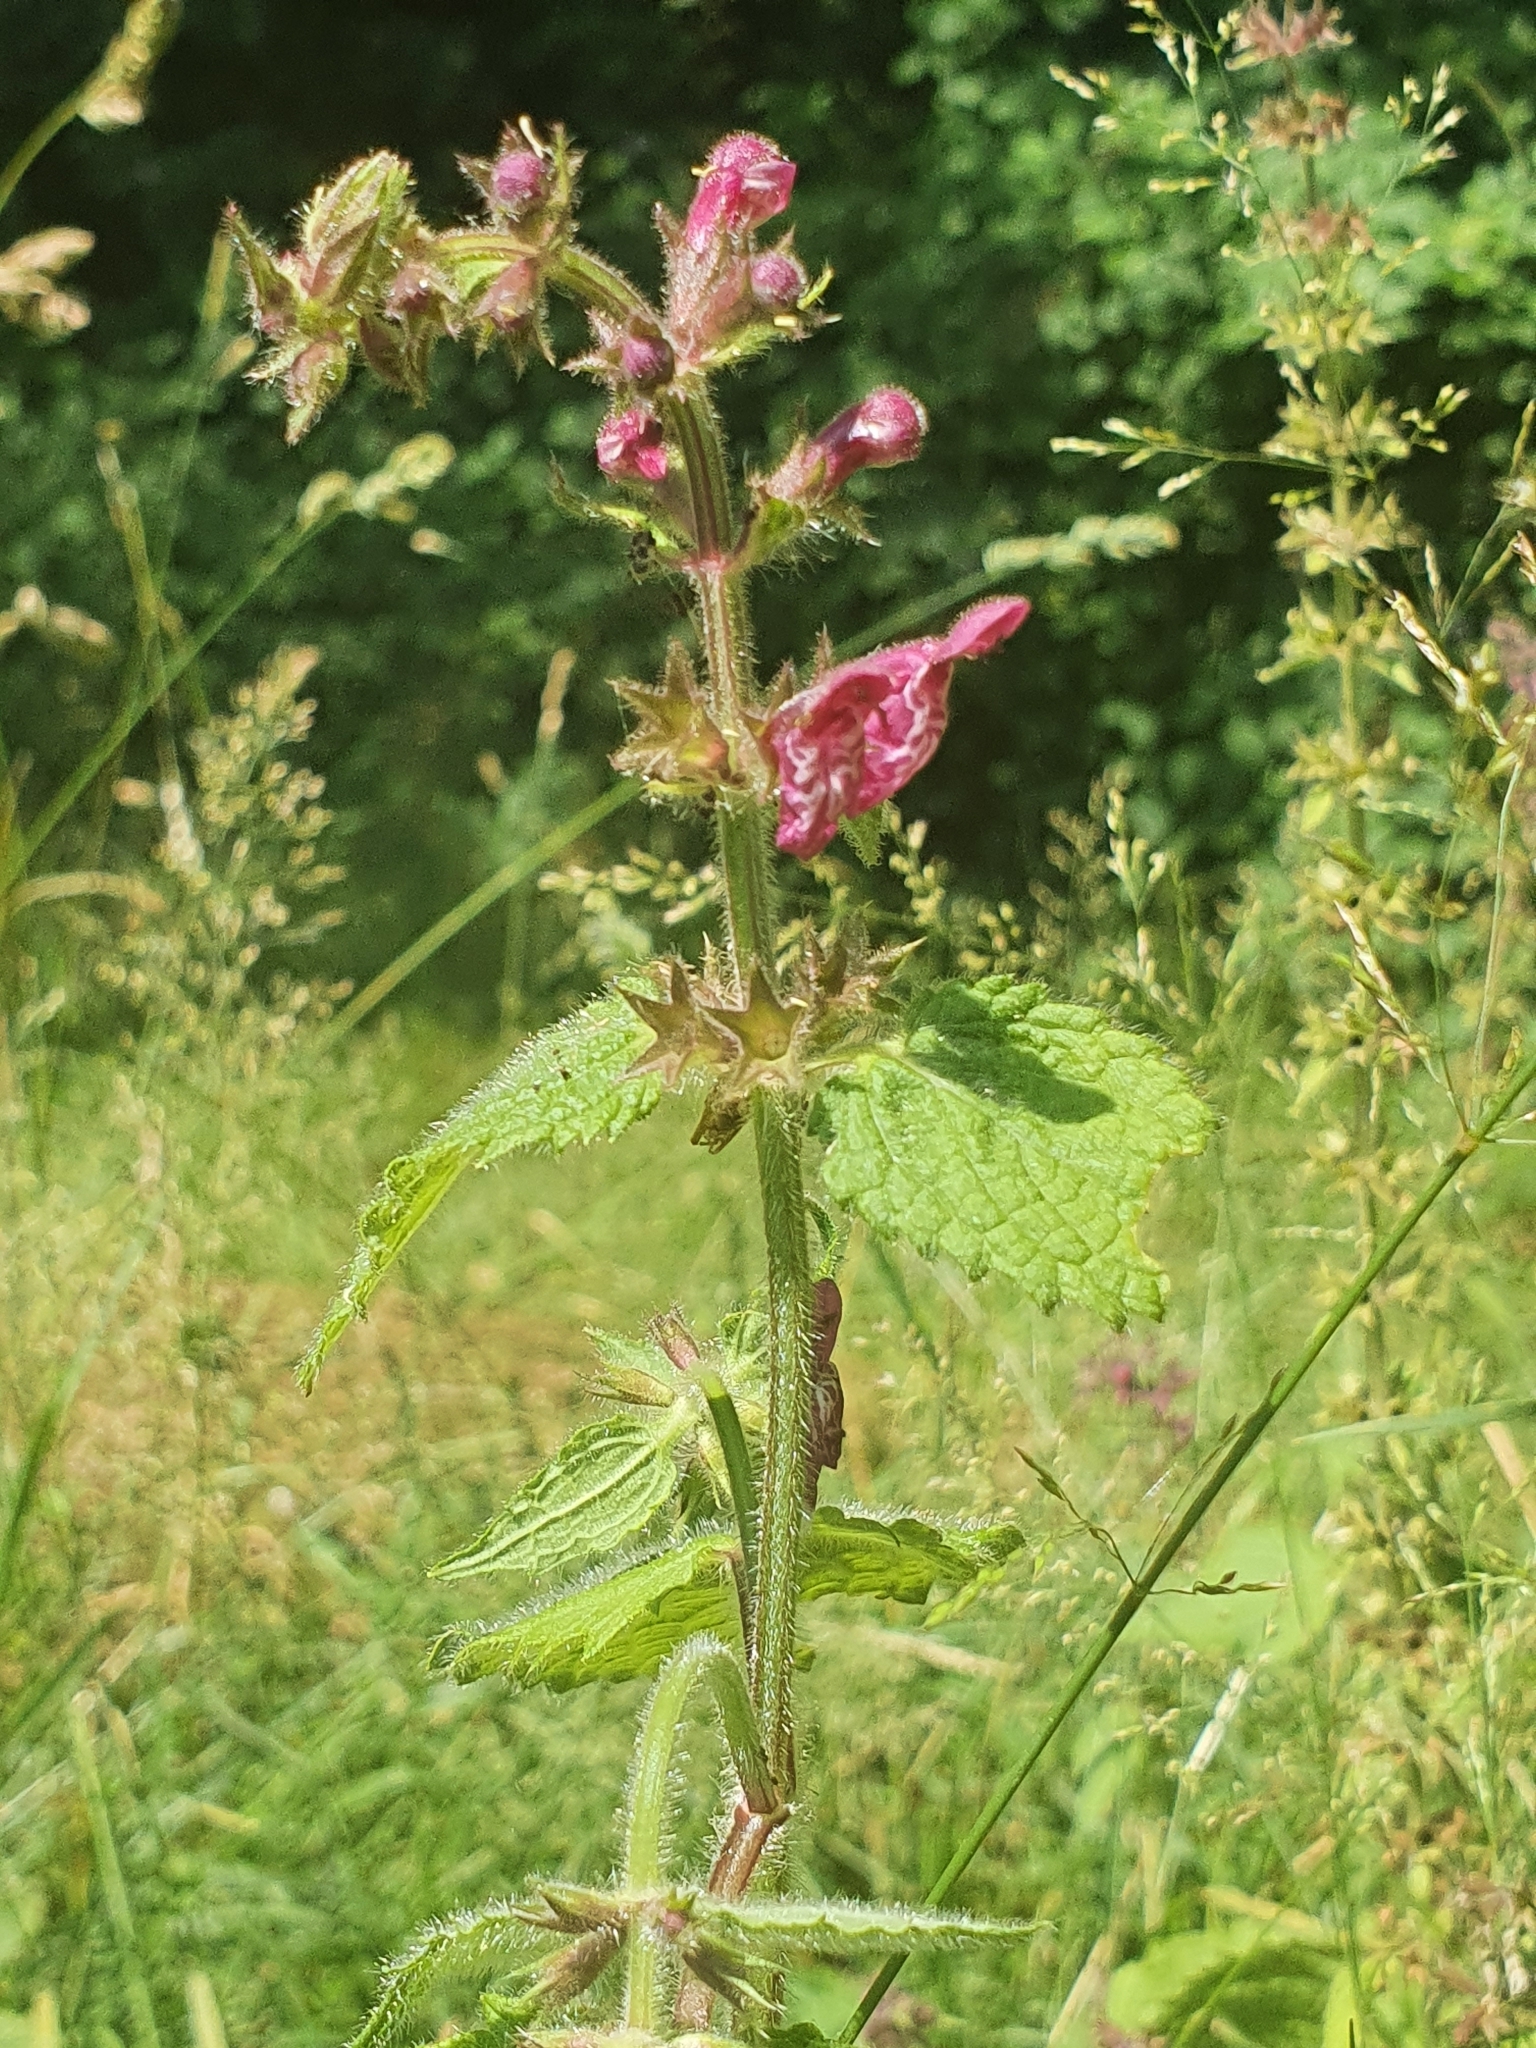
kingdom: Plantae
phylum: Tracheophyta
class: Magnoliopsida
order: Lamiales
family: Lamiaceae
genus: Stachys
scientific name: Stachys sylvatica
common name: Hedge woundwort
